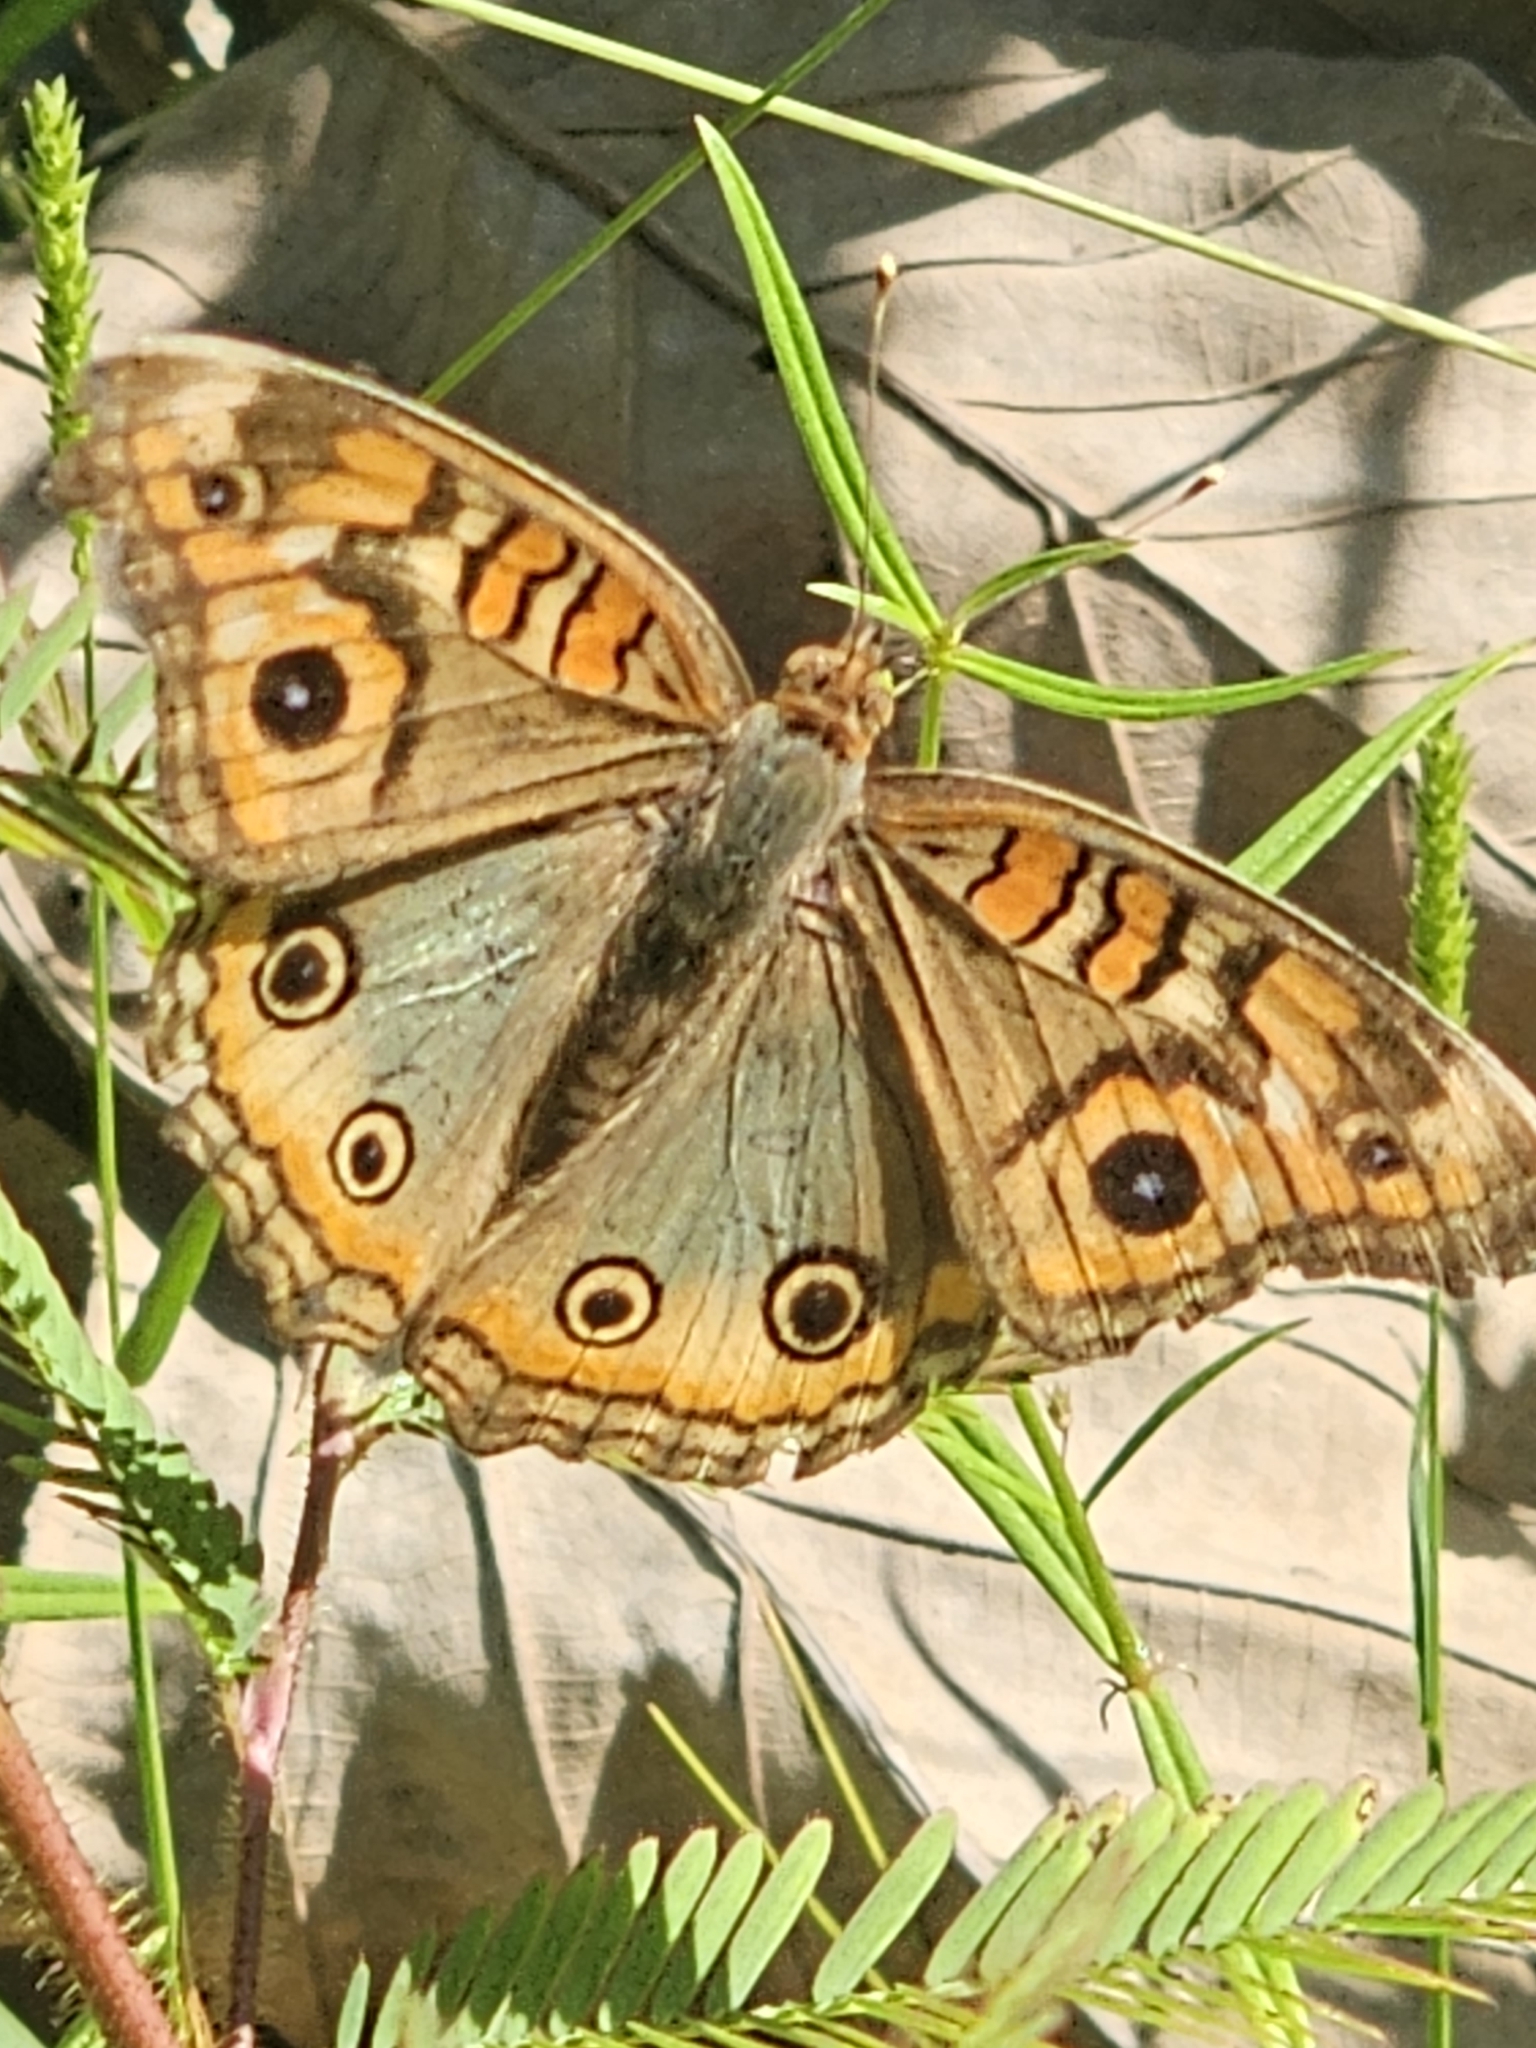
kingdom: Animalia
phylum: Arthropoda
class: Insecta
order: Lepidoptera
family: Nymphalidae
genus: Junonia
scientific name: Junonia evarete
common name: Black mangrove buckeye
